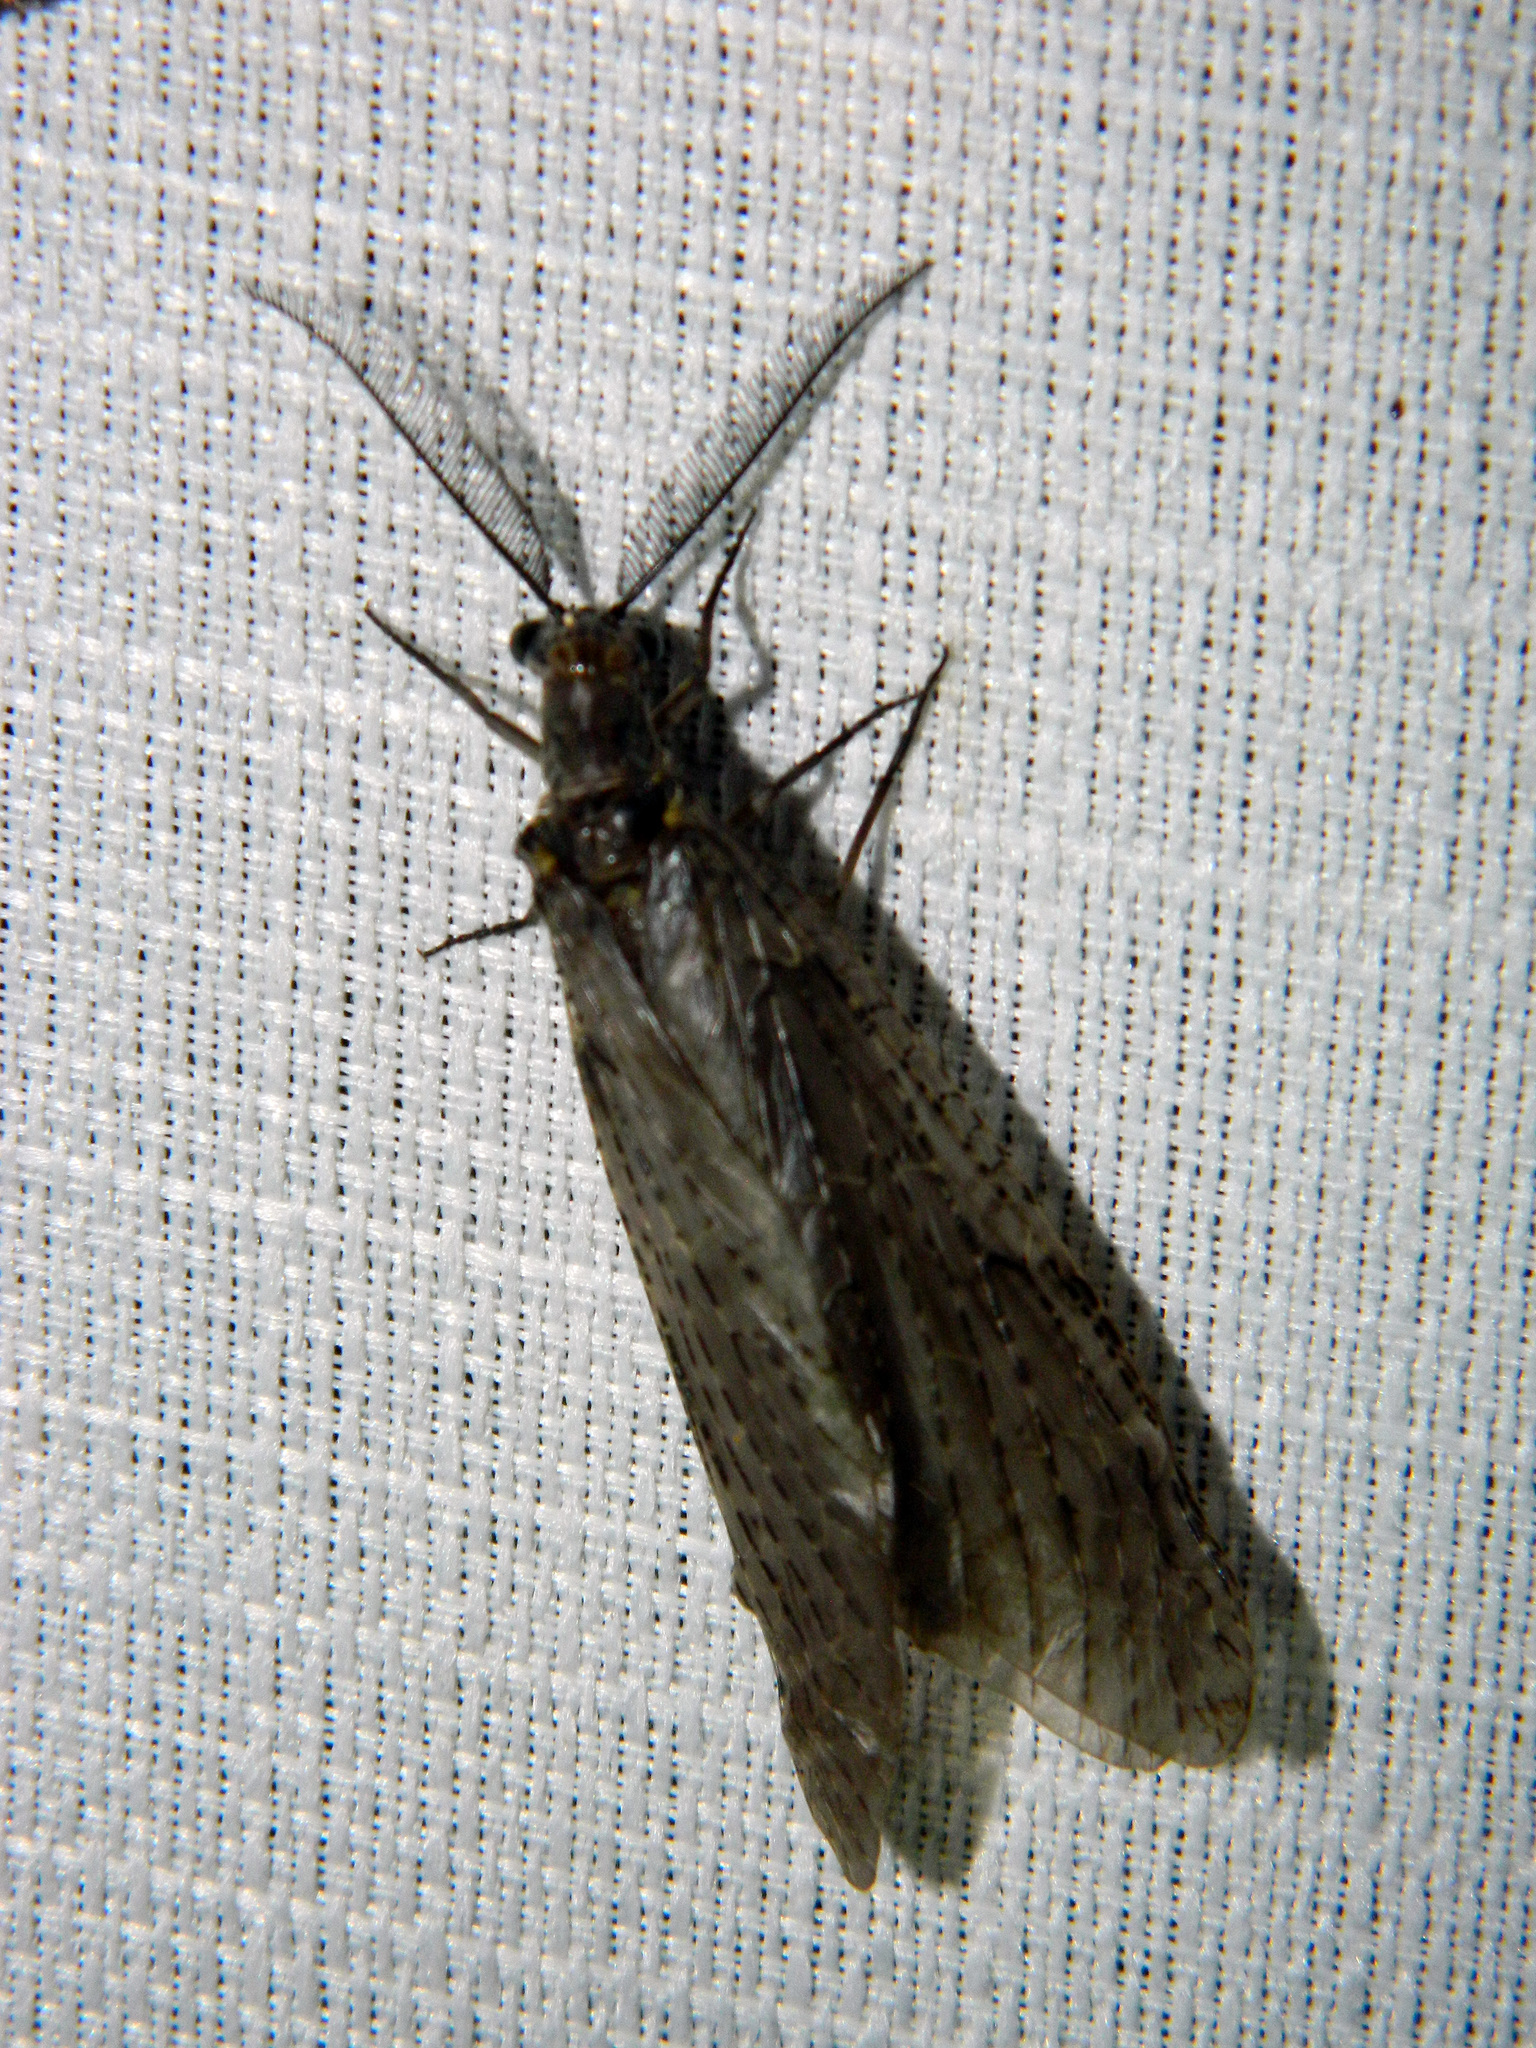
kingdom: Animalia
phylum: Arthropoda
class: Insecta
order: Megaloptera
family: Corydalidae
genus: Chauliodes
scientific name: Chauliodes rastricornis
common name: Spring fishfly
